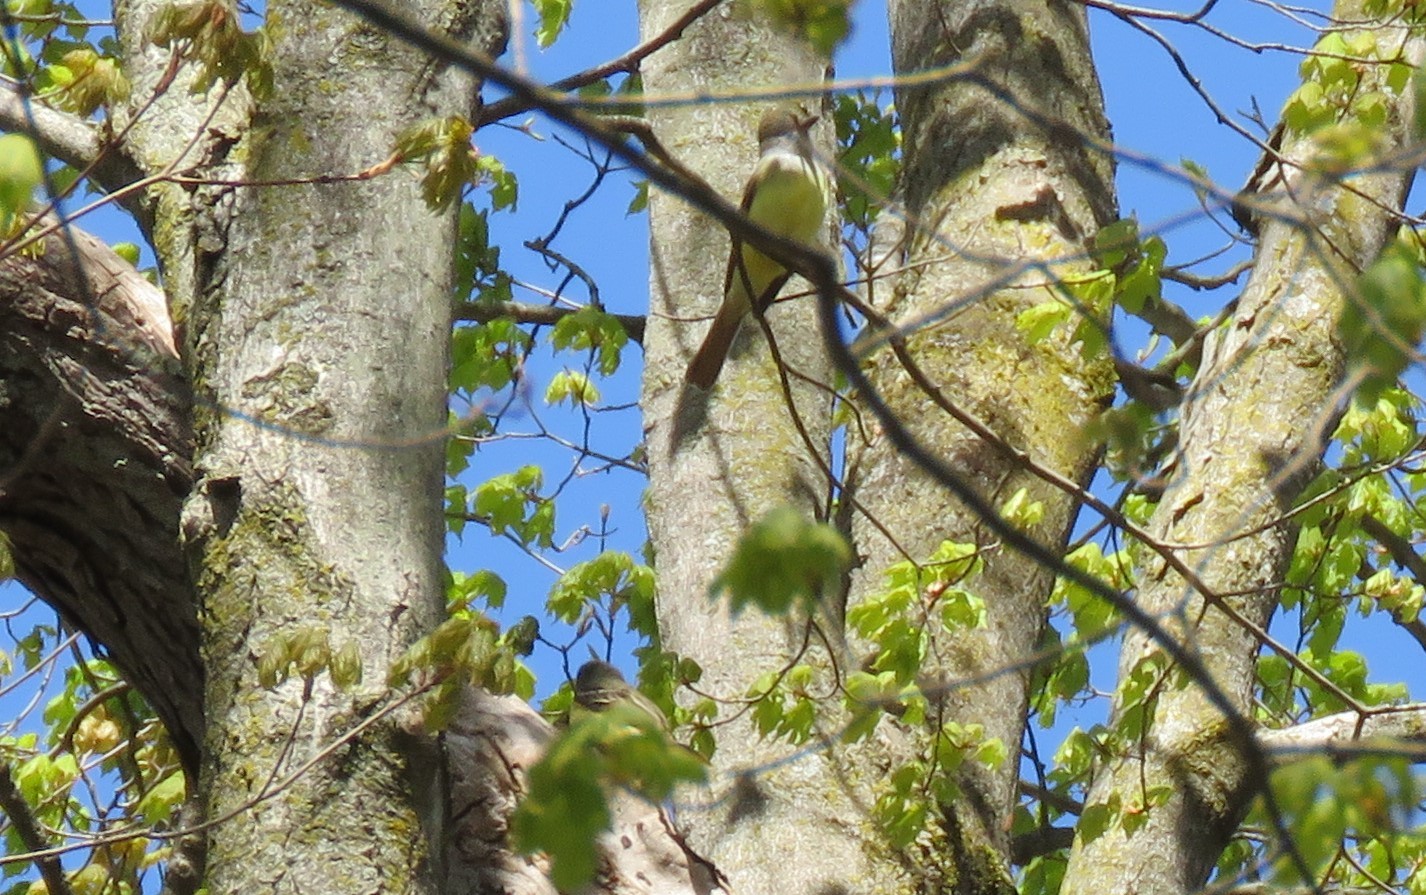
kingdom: Animalia
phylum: Chordata
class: Aves
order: Passeriformes
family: Tyrannidae
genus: Myiarchus
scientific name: Myiarchus crinitus
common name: Great crested flycatcher
